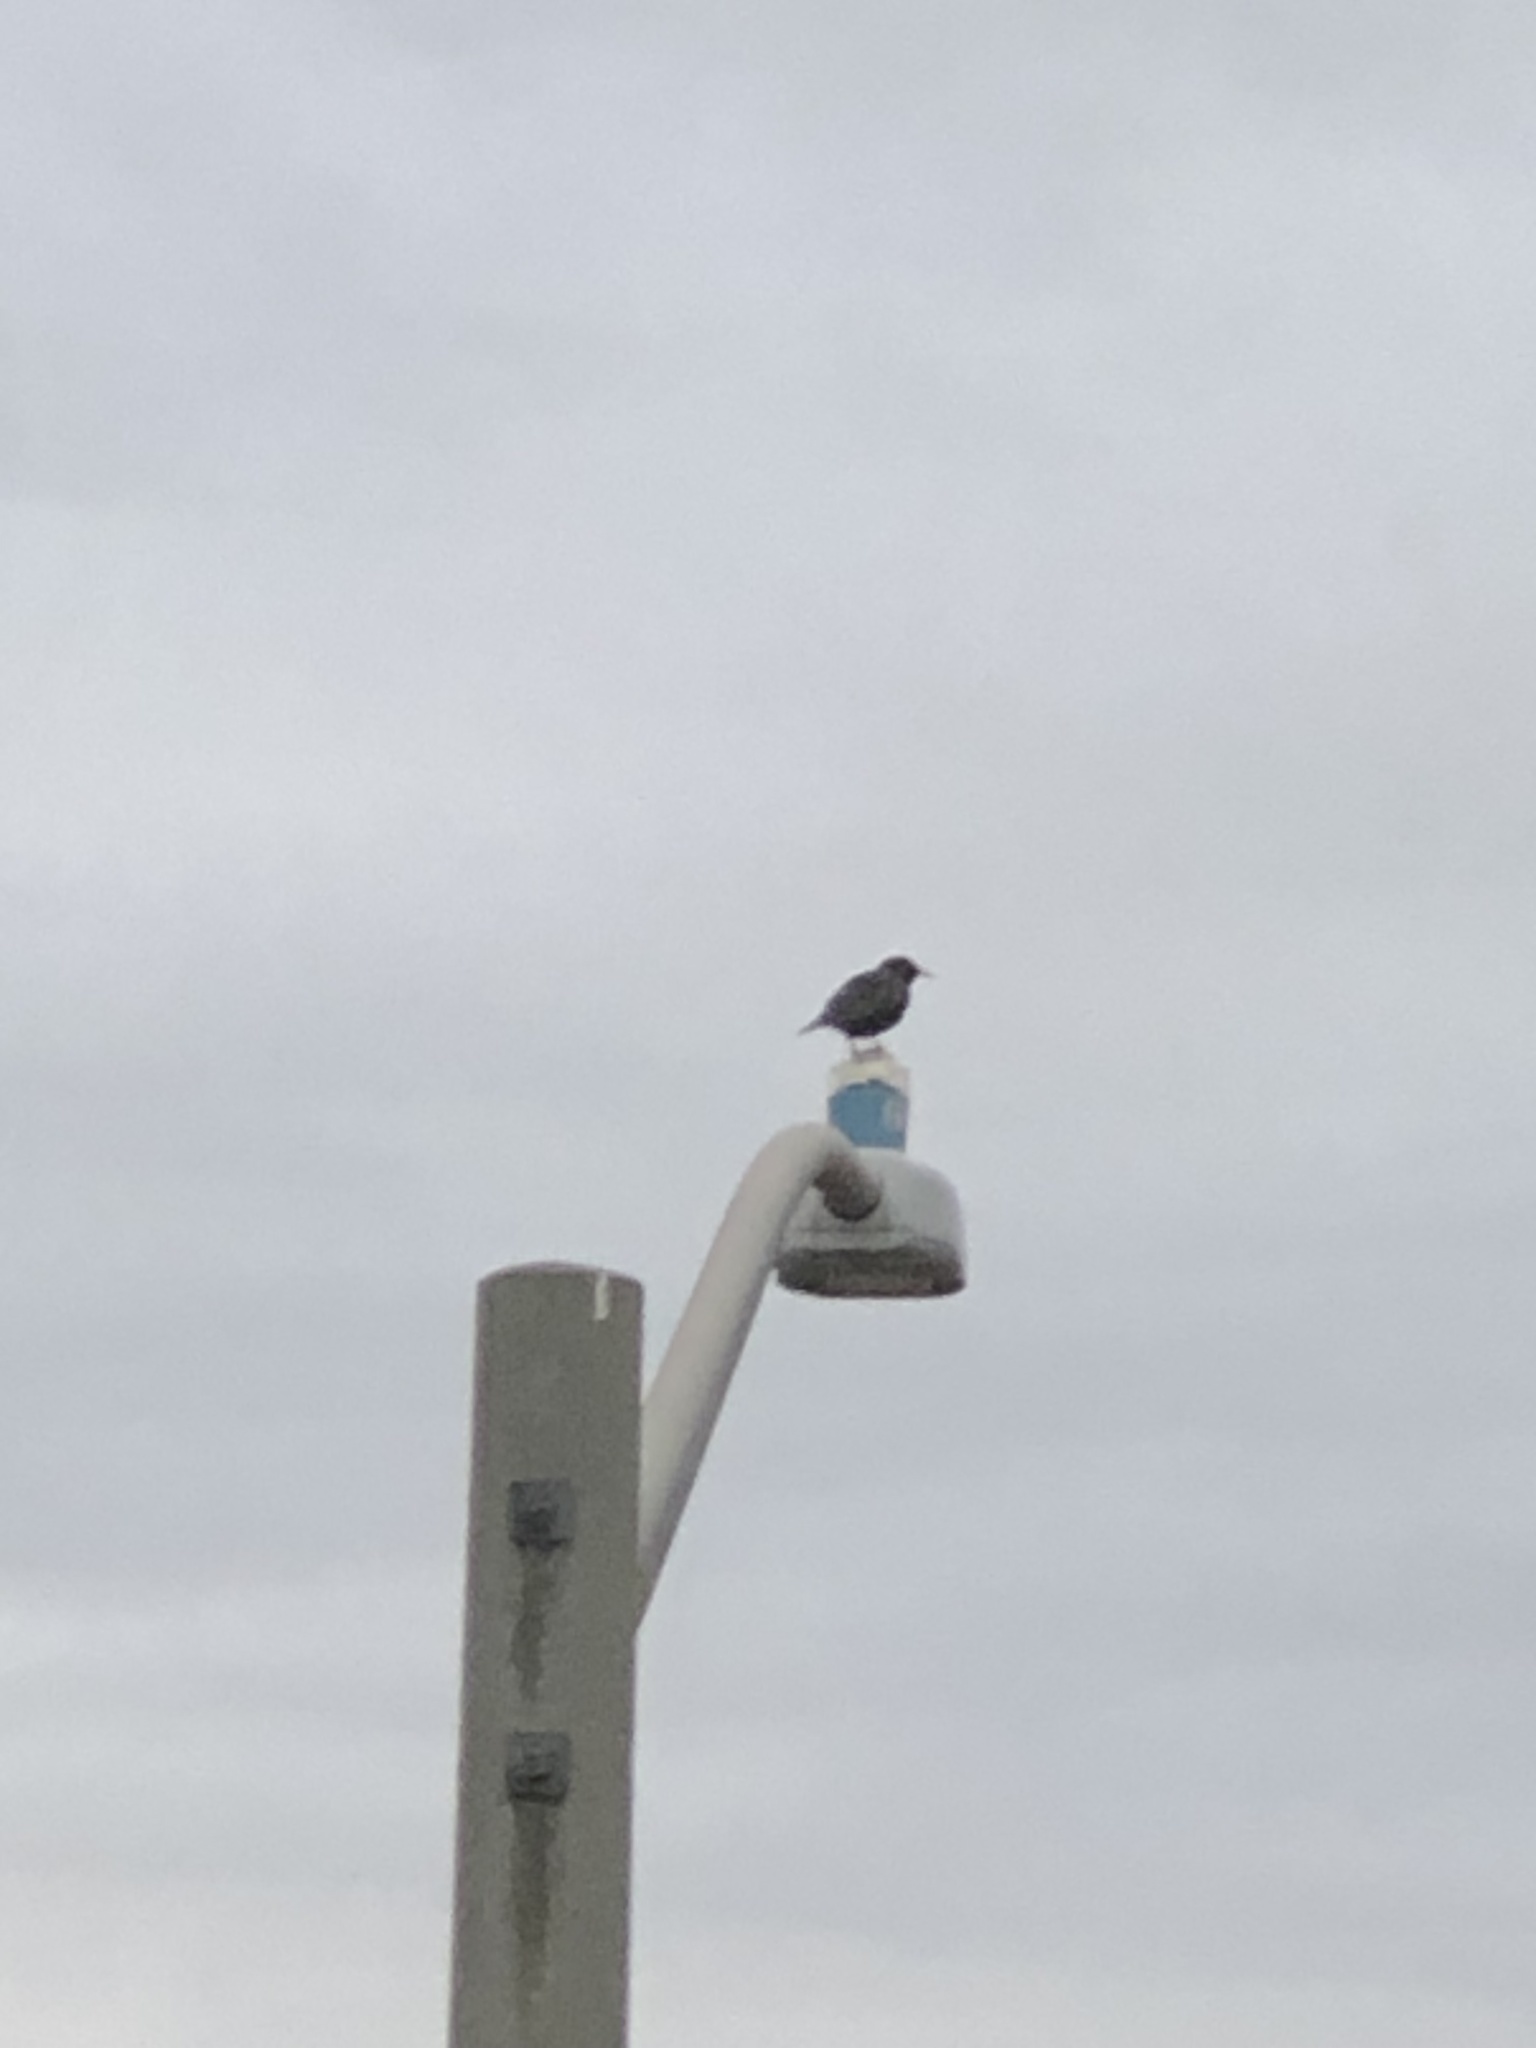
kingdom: Animalia
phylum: Chordata
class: Aves
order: Passeriformes
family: Sturnidae
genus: Sturnus
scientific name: Sturnus vulgaris
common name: Common starling
